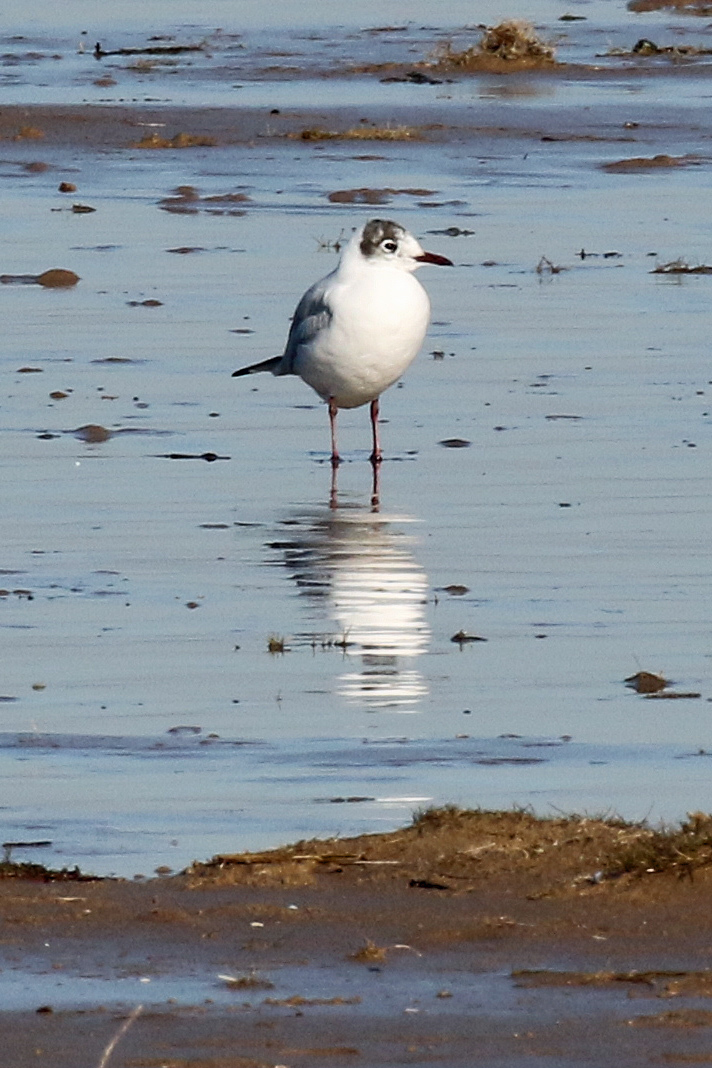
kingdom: Animalia
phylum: Chordata
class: Aves
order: Charadriiformes
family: Laridae
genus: Chroicocephalus
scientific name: Chroicocephalus ridibundus
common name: Black-headed gull
